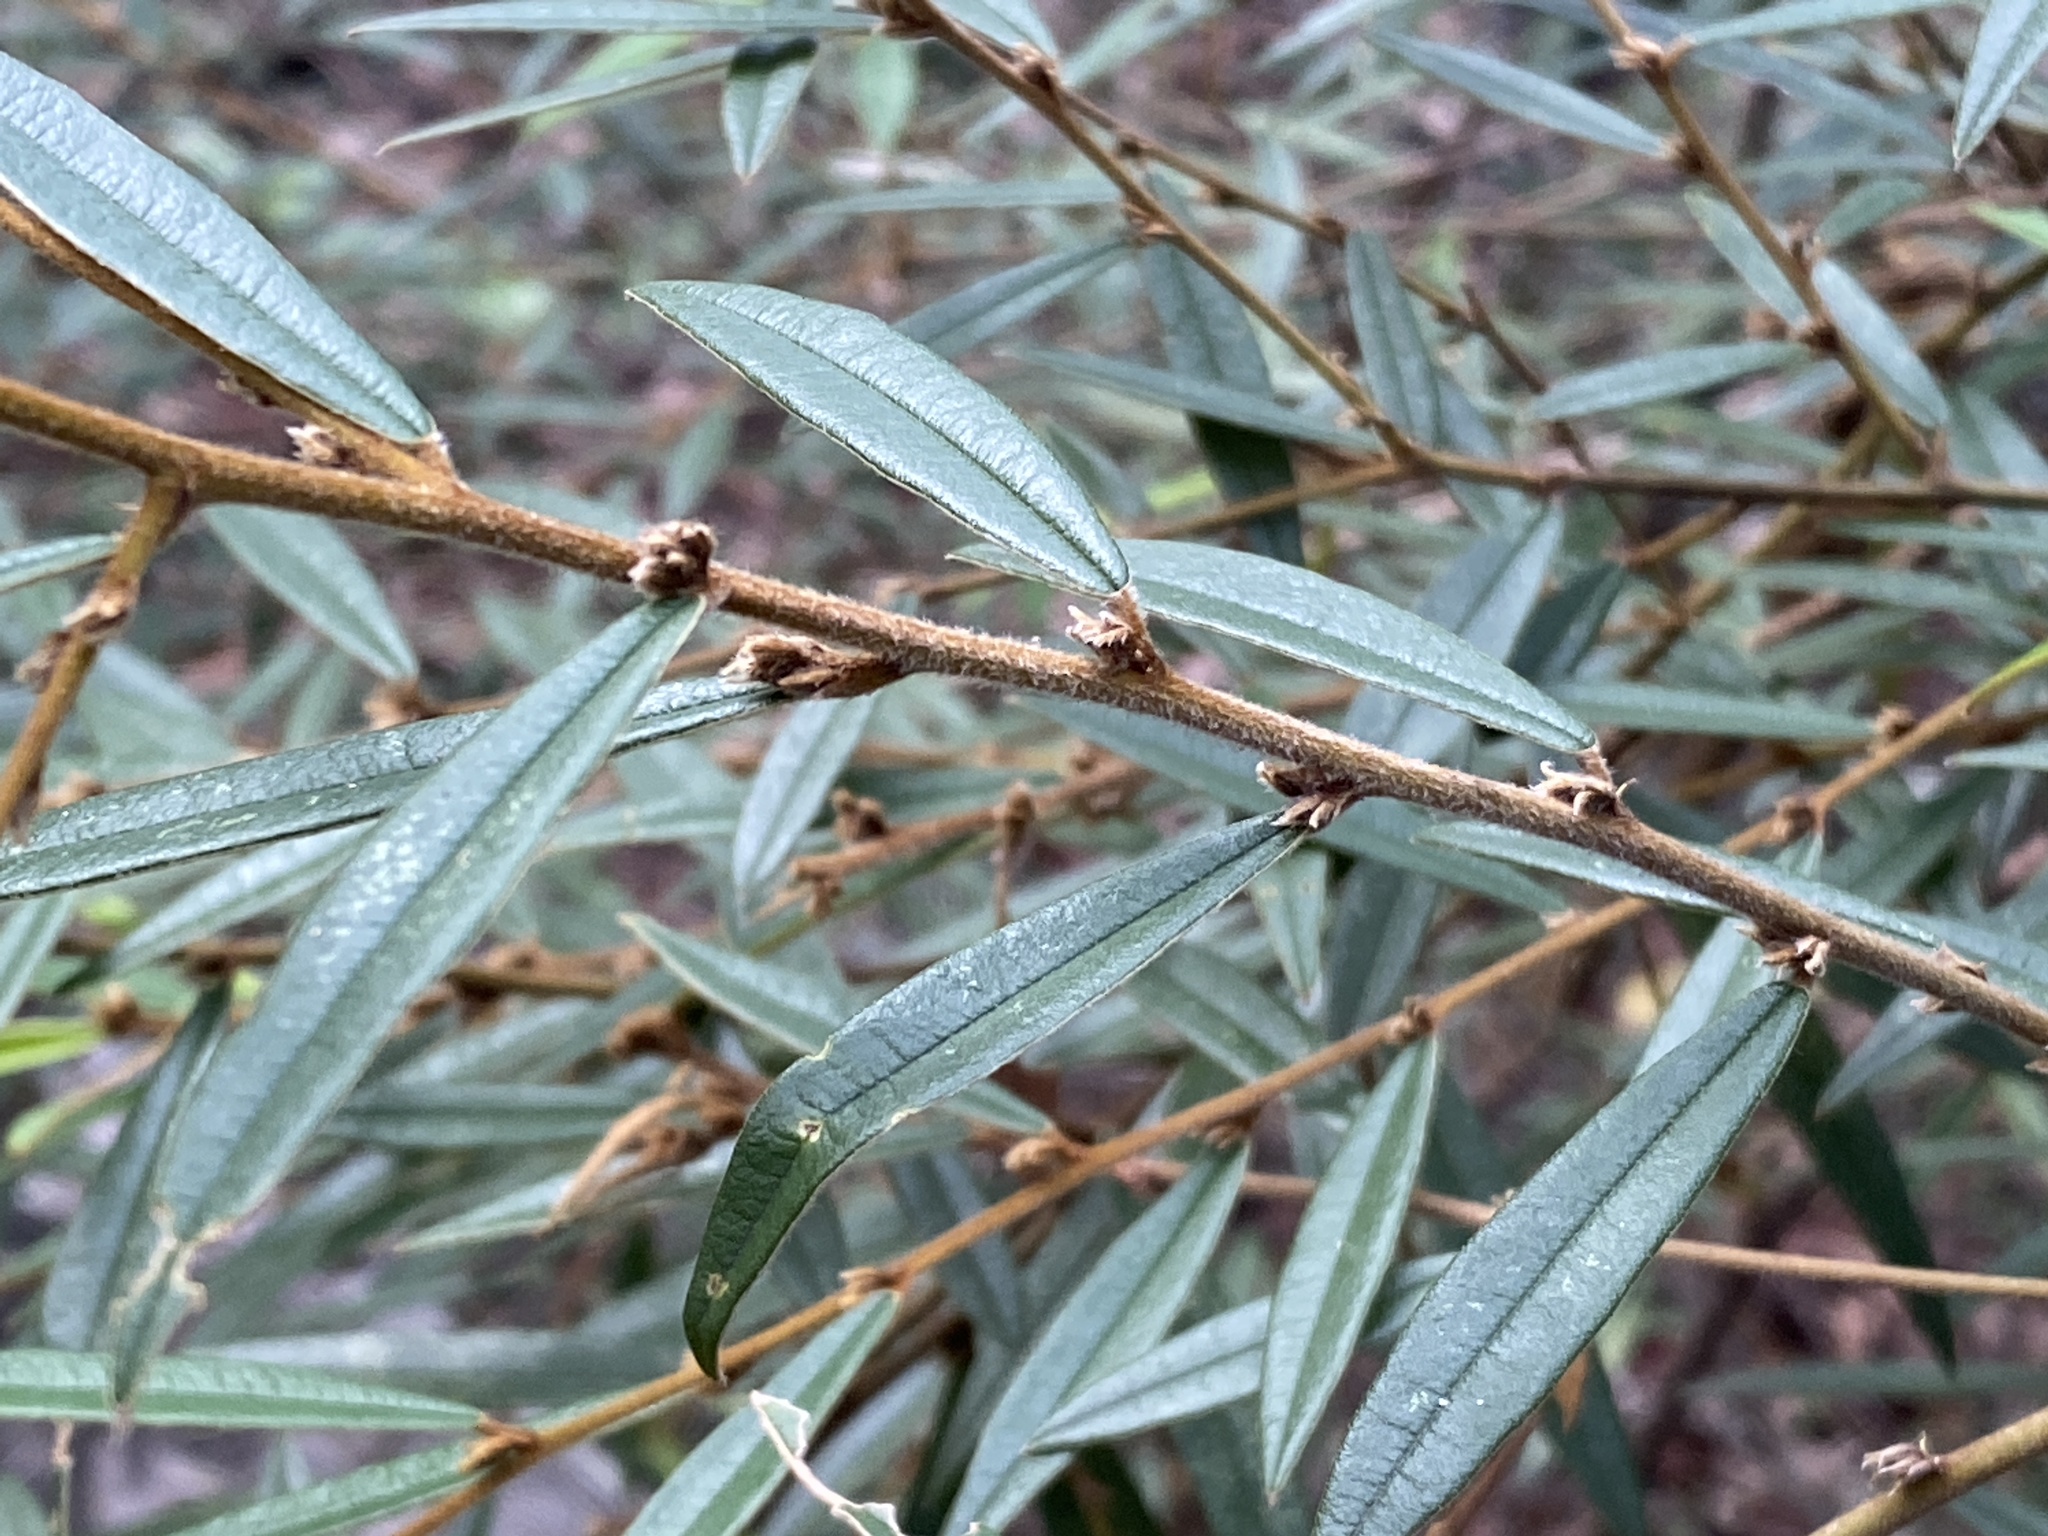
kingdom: Plantae
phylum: Tracheophyta
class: Magnoliopsida
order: Fabales
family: Fabaceae
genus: Hovea
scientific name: Hovea acutifolia
